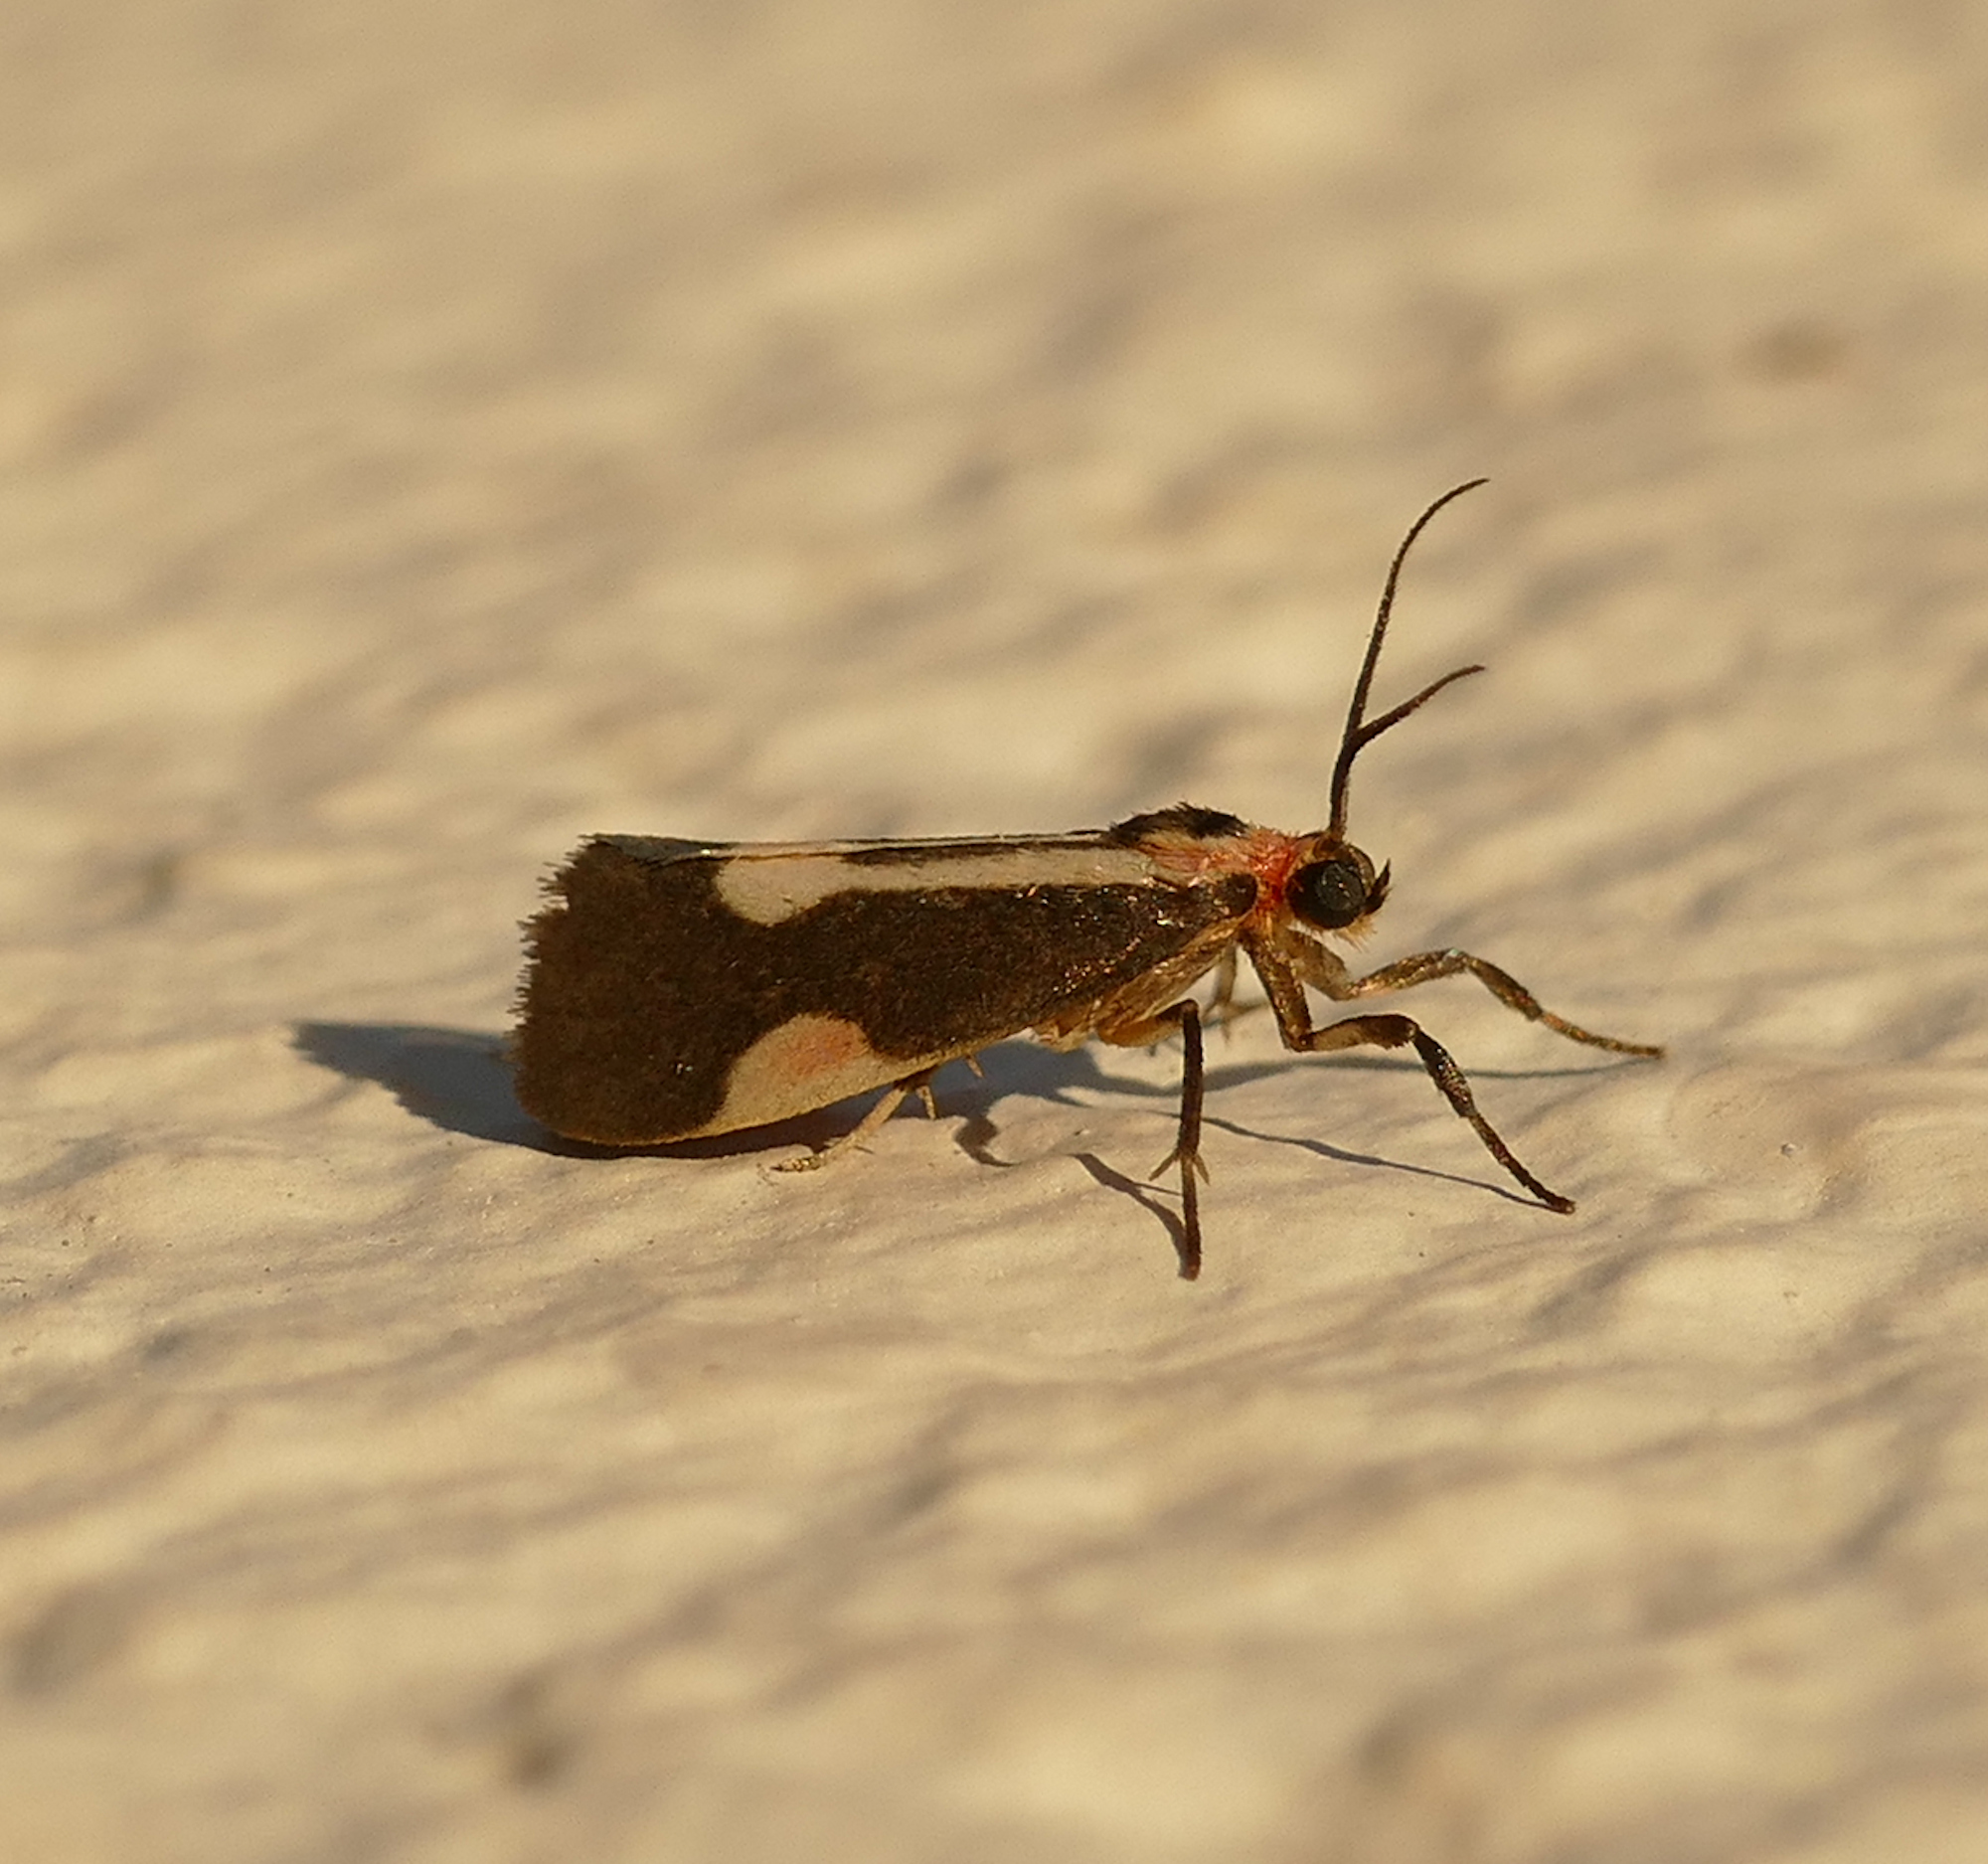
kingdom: Animalia
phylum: Arthropoda
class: Insecta
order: Lepidoptera
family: Erebidae
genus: Cisthene
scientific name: Cisthene packardii
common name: Packard's lichen moth
